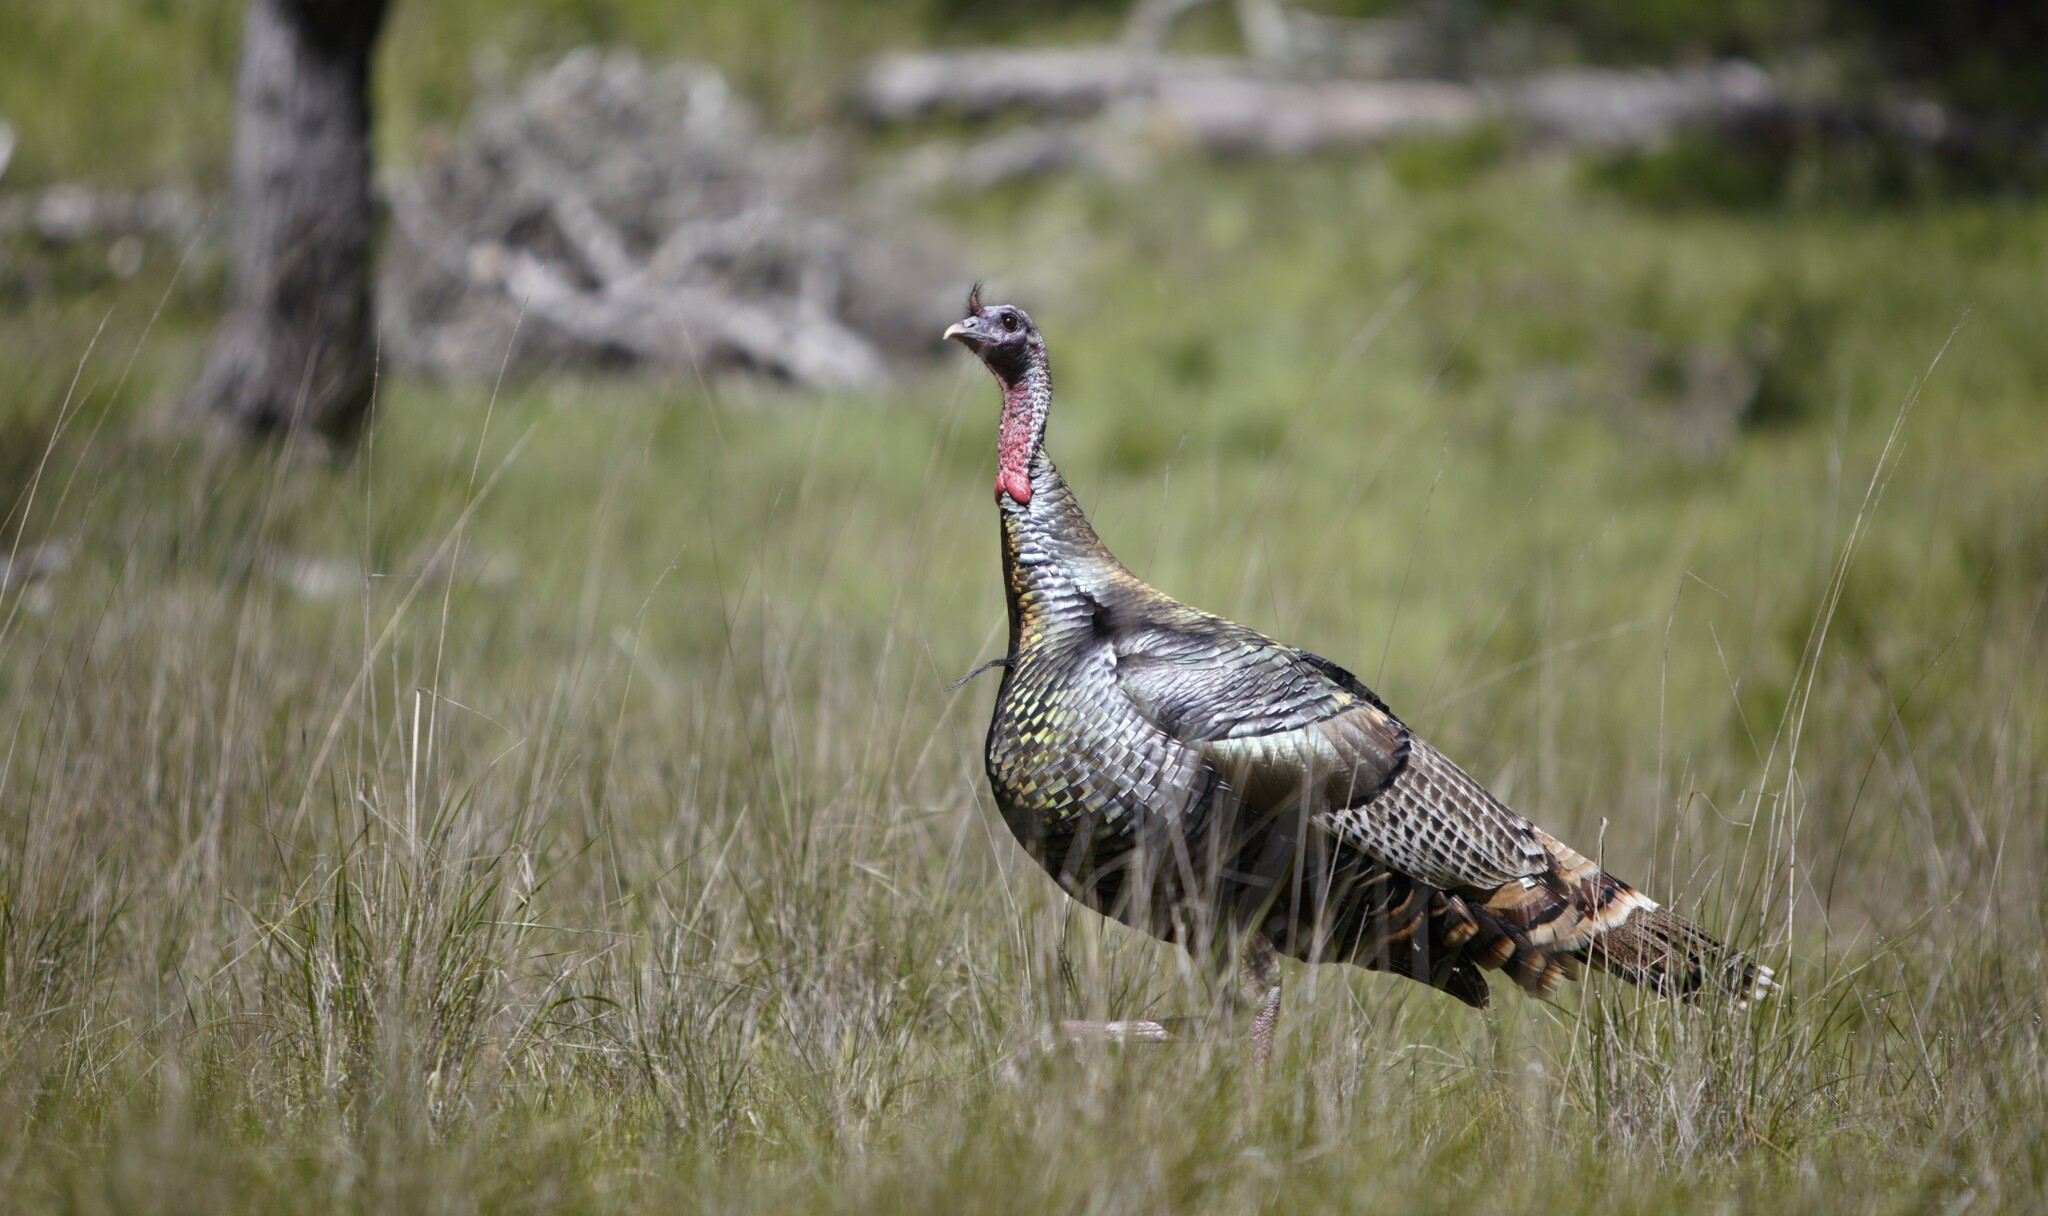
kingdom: Animalia
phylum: Chordata
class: Aves
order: Galliformes
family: Phasianidae
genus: Meleagris
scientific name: Meleagris gallopavo
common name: Wild turkey
